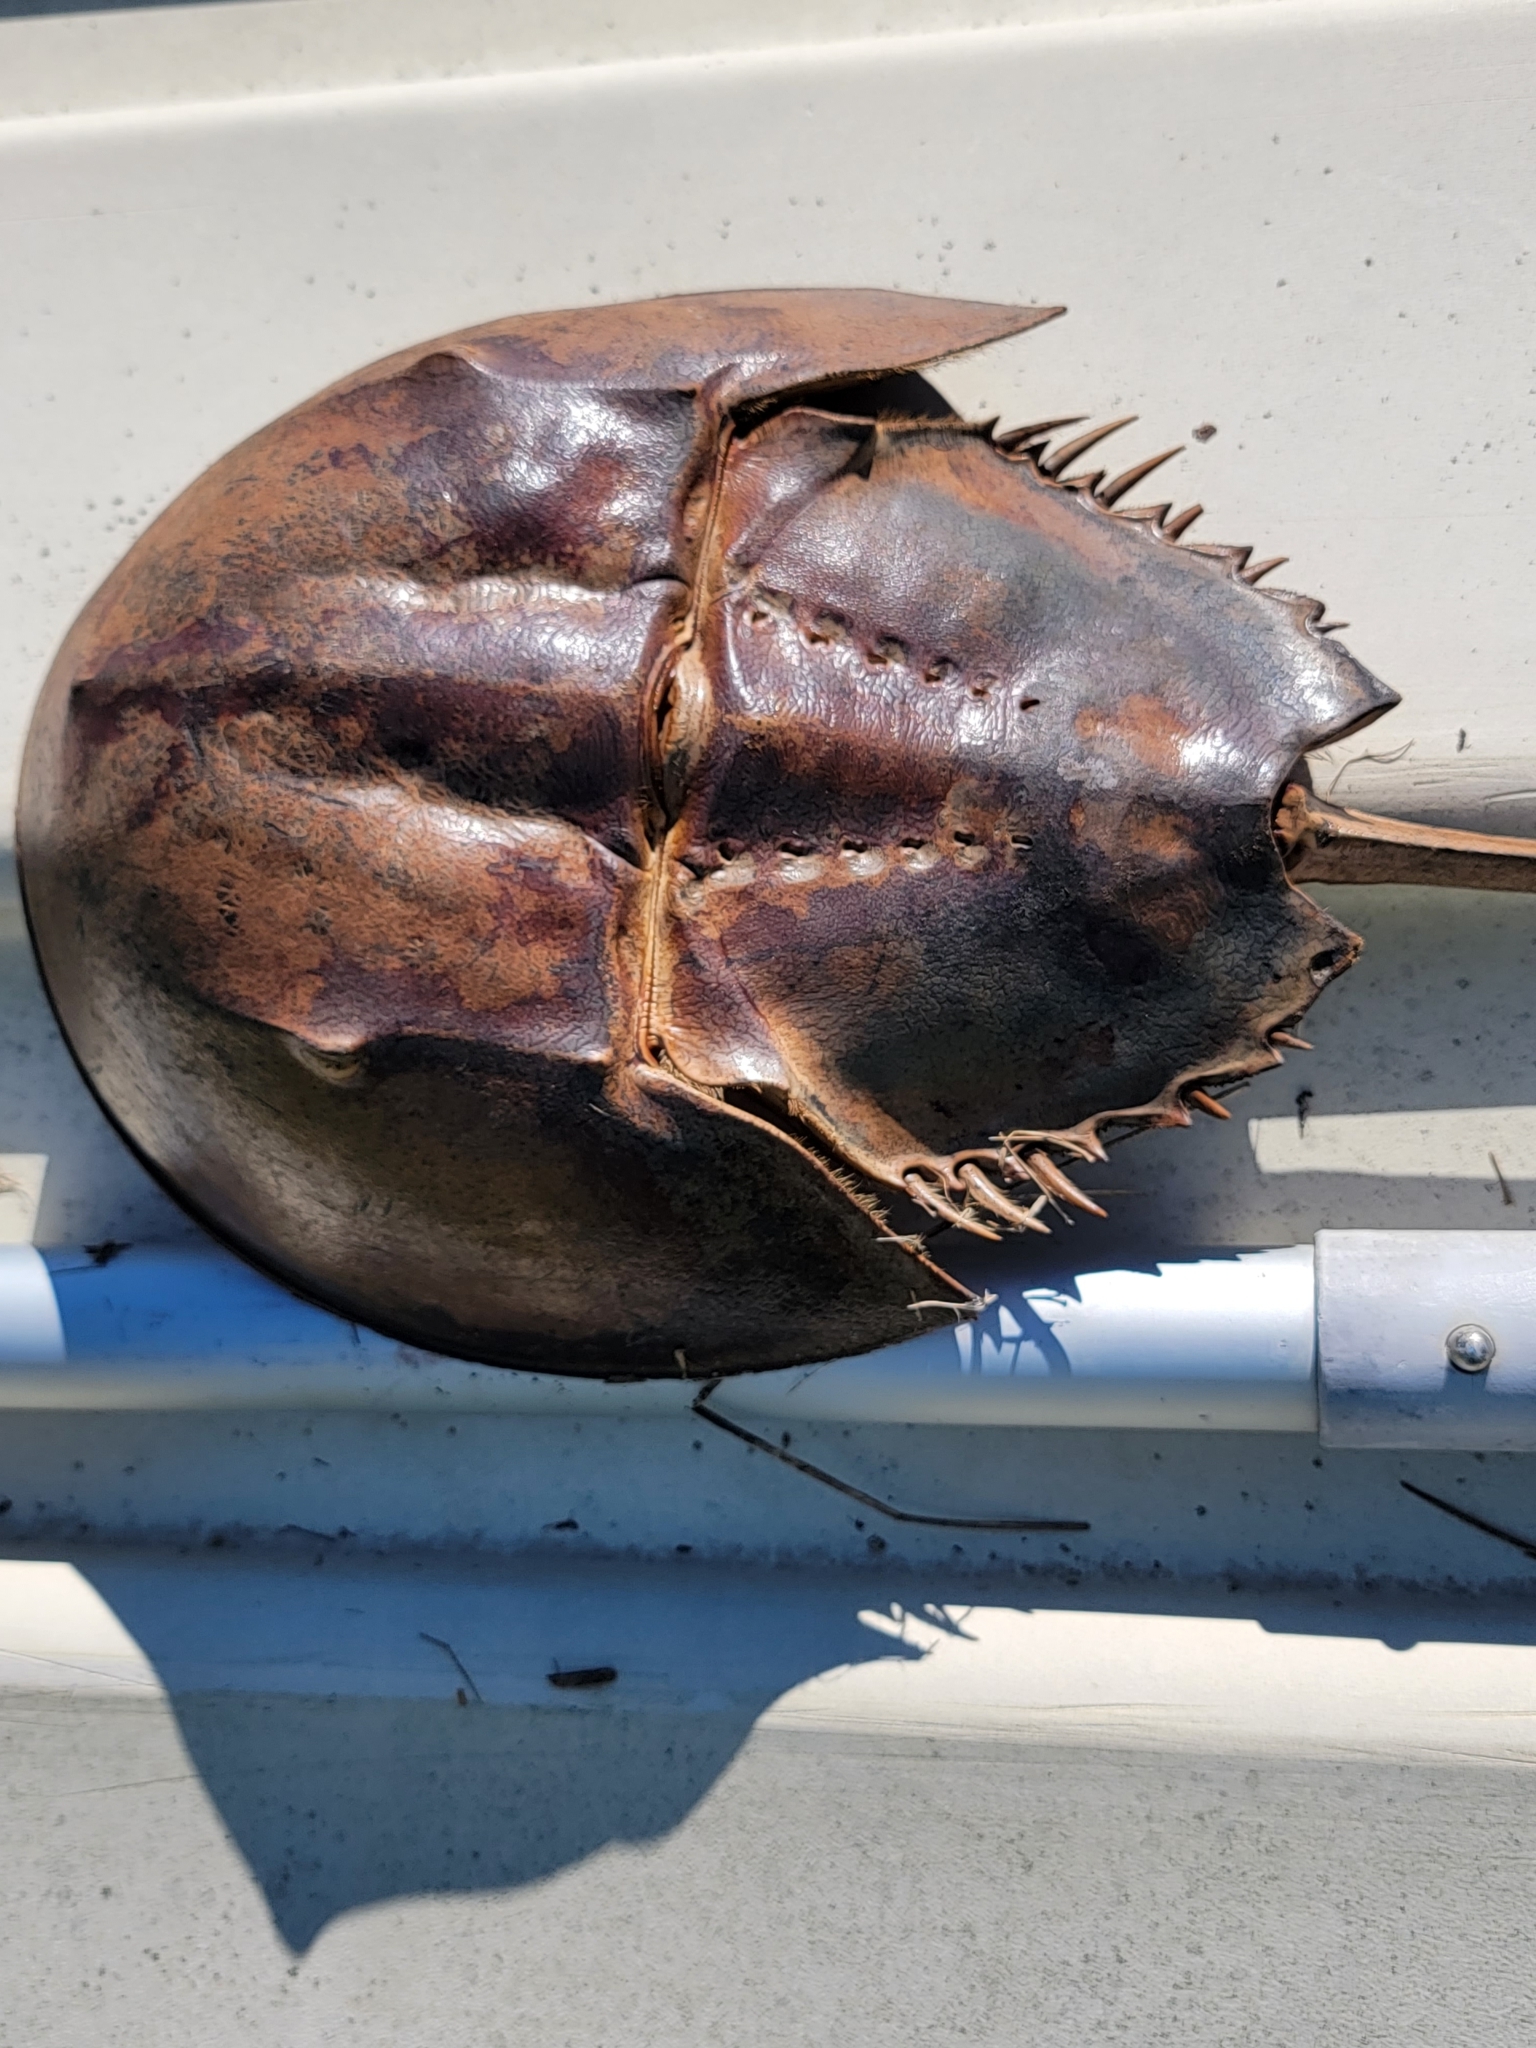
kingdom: Animalia
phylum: Arthropoda
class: Merostomata
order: Xiphosurida
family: Limulidae
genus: Limulus
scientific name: Limulus polyphemus
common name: Horseshoe crab
